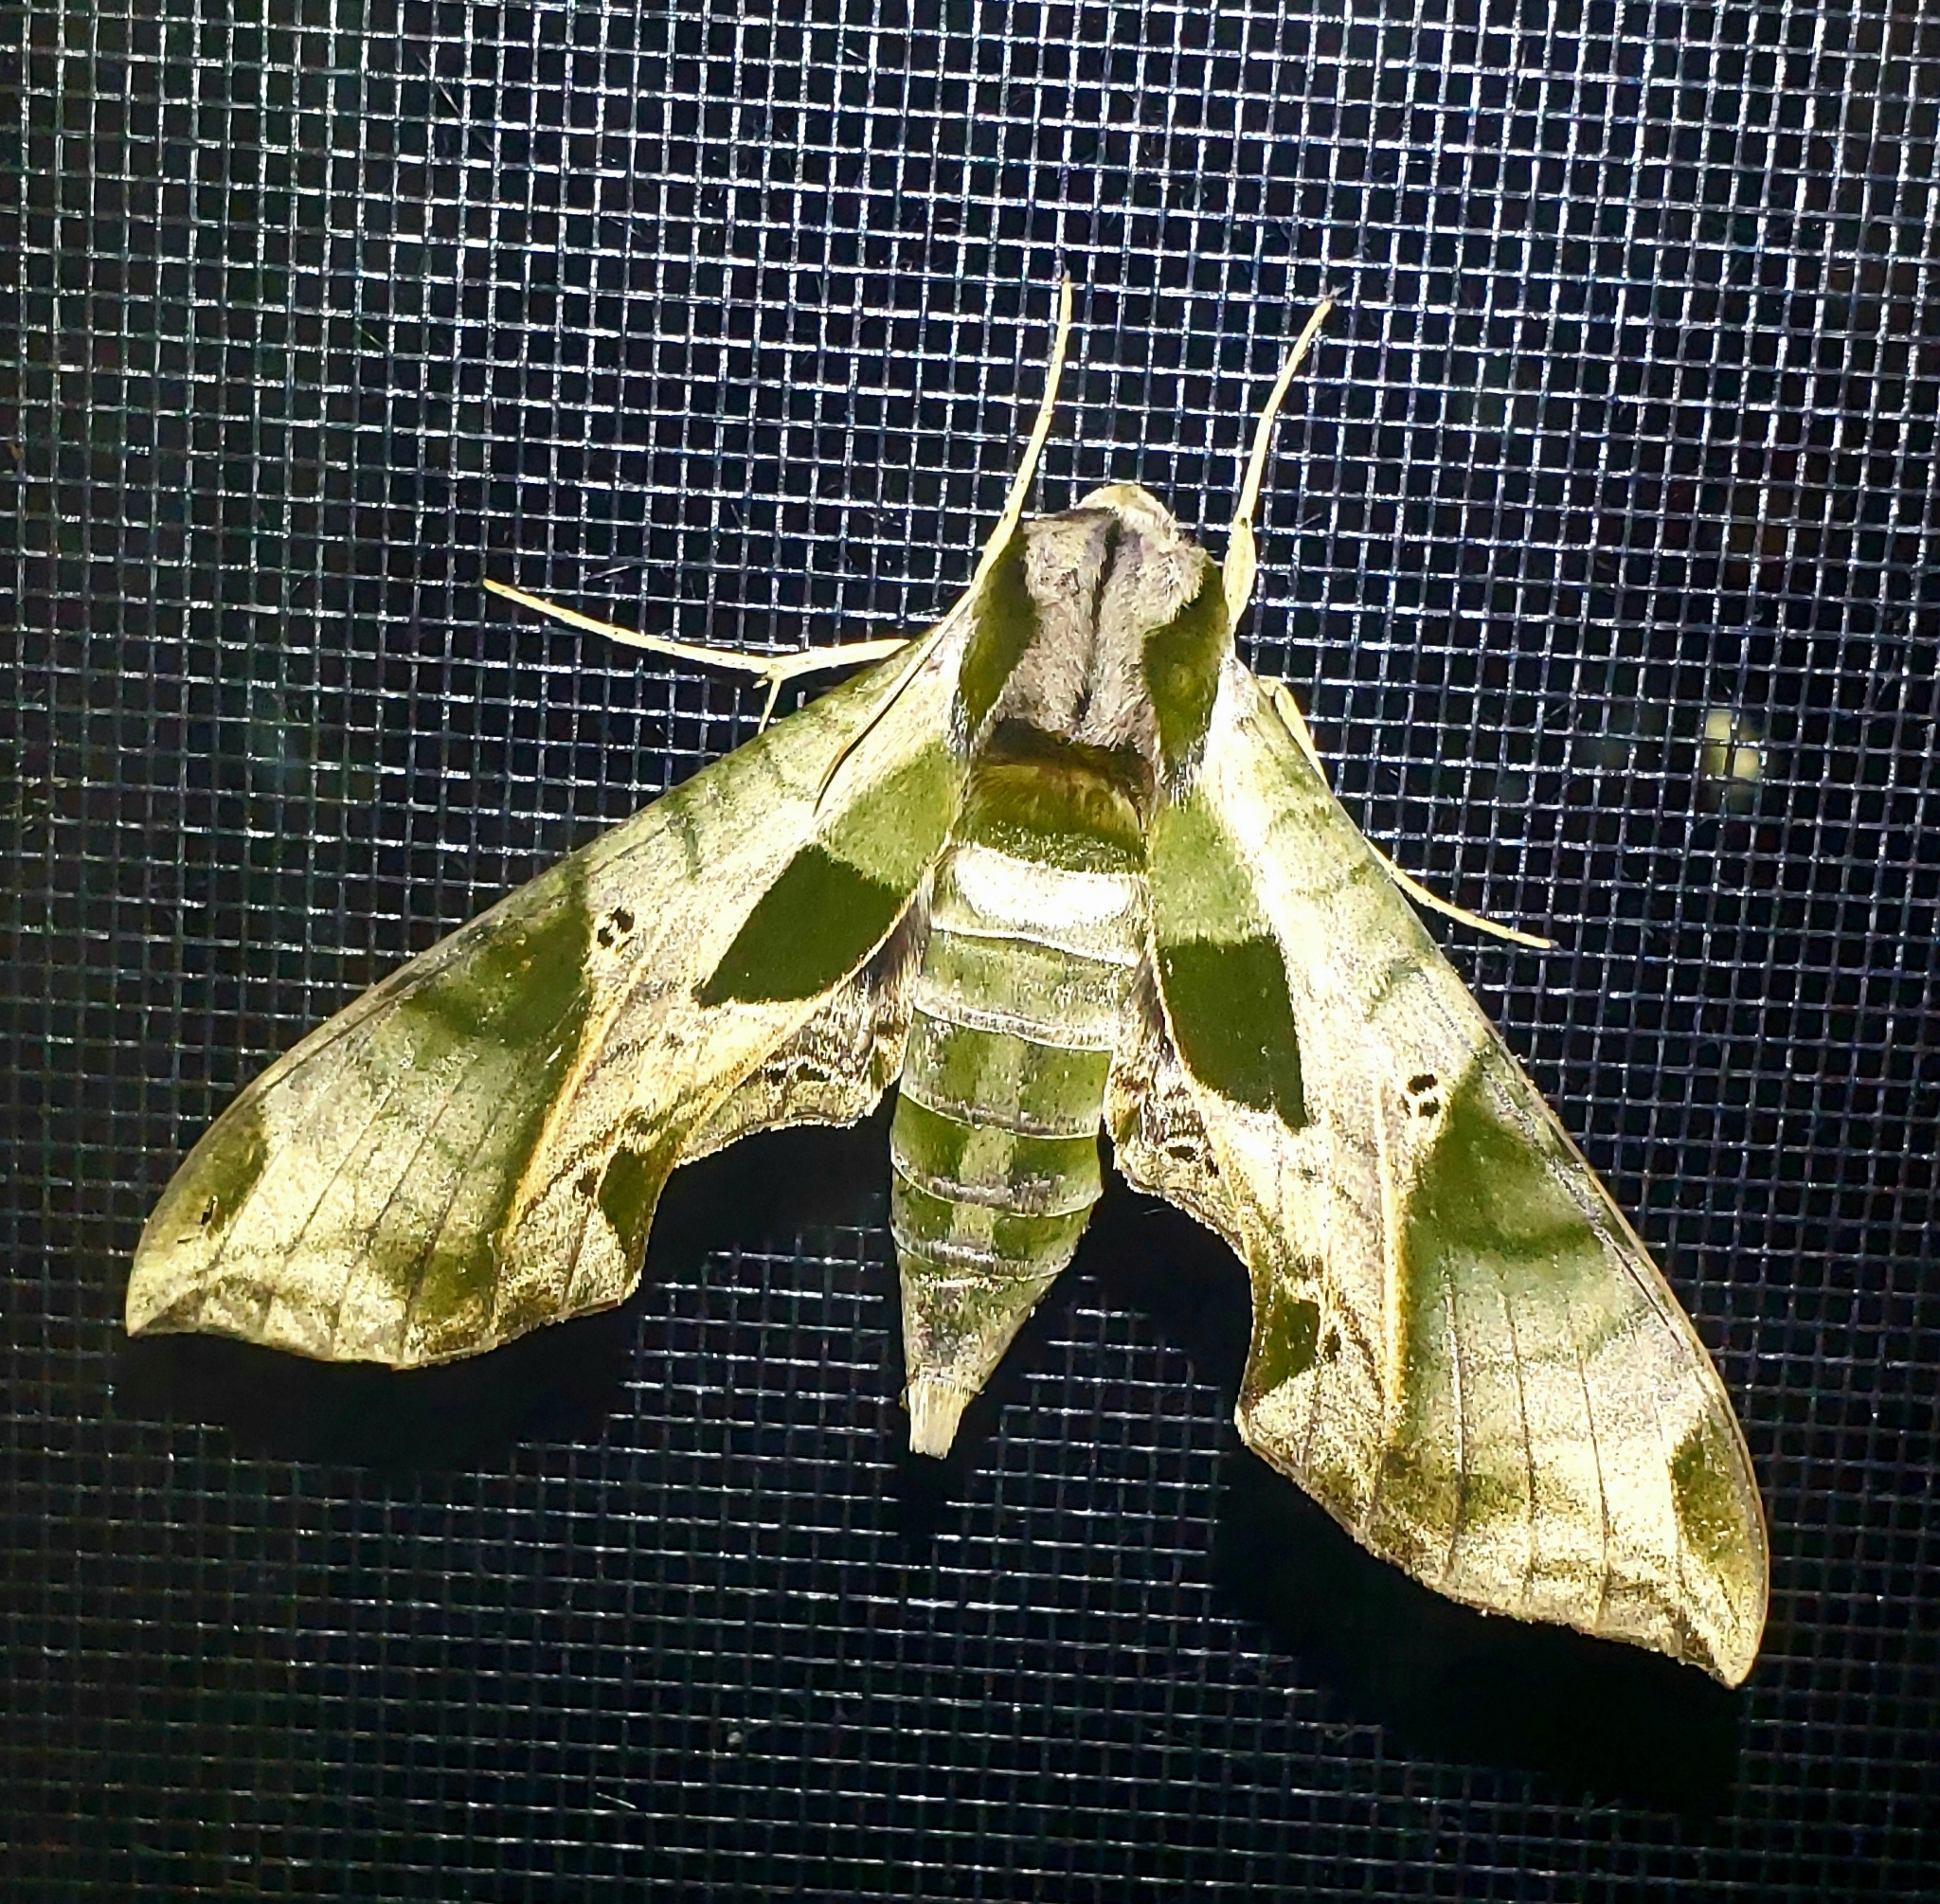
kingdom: Animalia
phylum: Arthropoda
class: Insecta
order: Lepidoptera
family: Sphingidae
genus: Eumorpha
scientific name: Eumorpha pandorus
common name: Pandora sphinx
